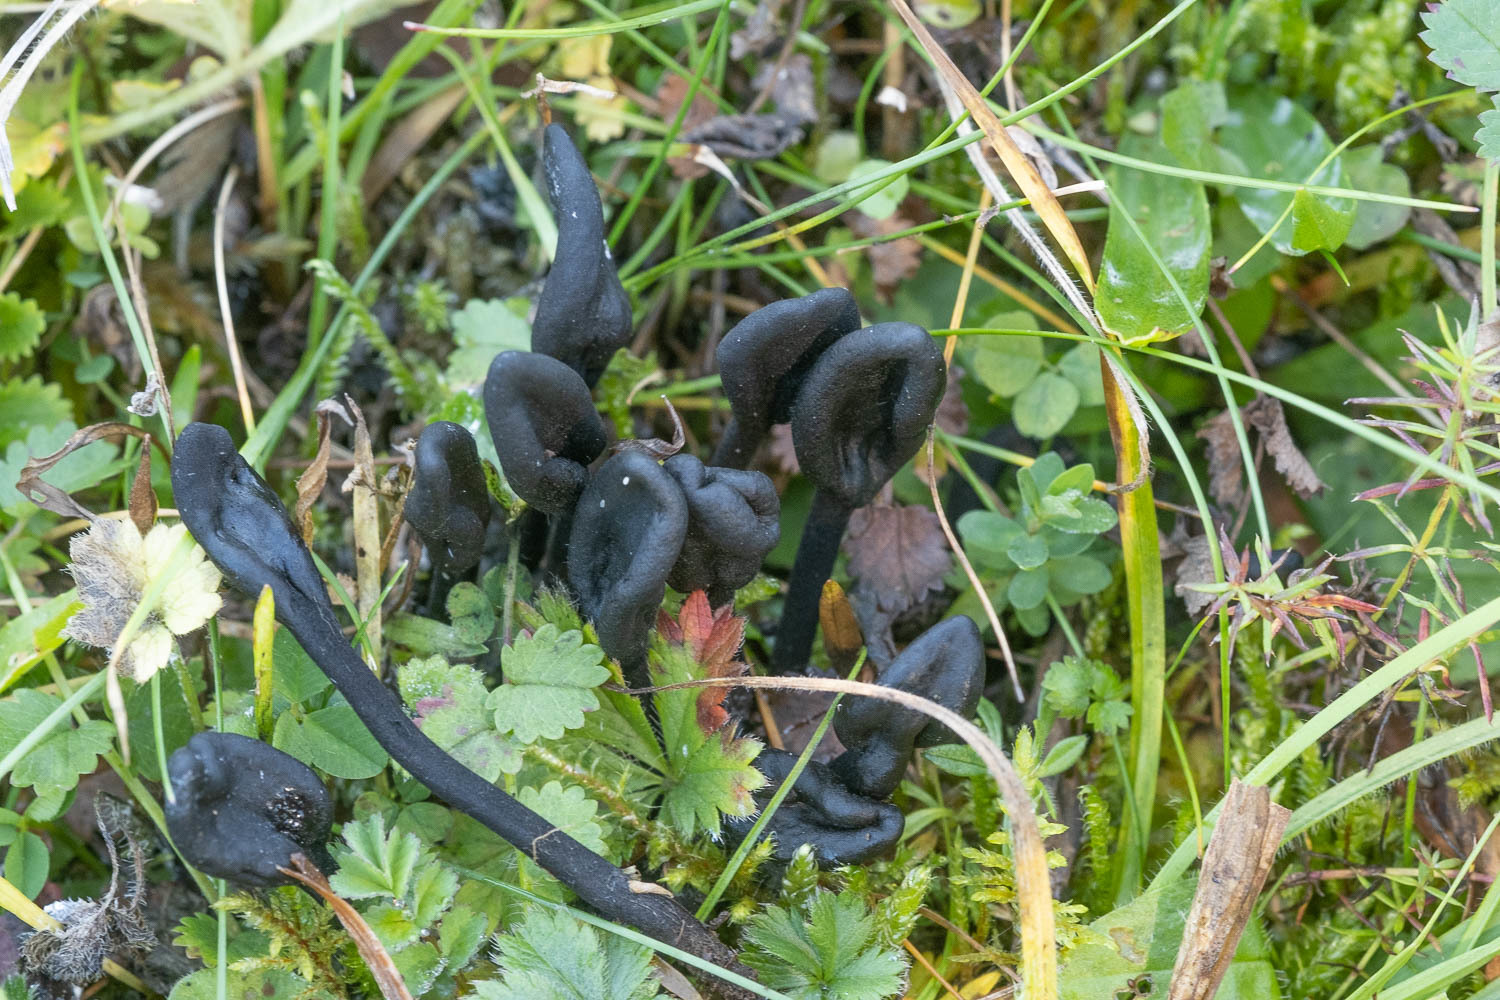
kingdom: Fungi
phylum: Ascomycota
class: Geoglossomycetes
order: Geoglossales
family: Geoglossaceae
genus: Trichoglossum
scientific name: Trichoglossum hirsutum
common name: Hairy earthtongue
